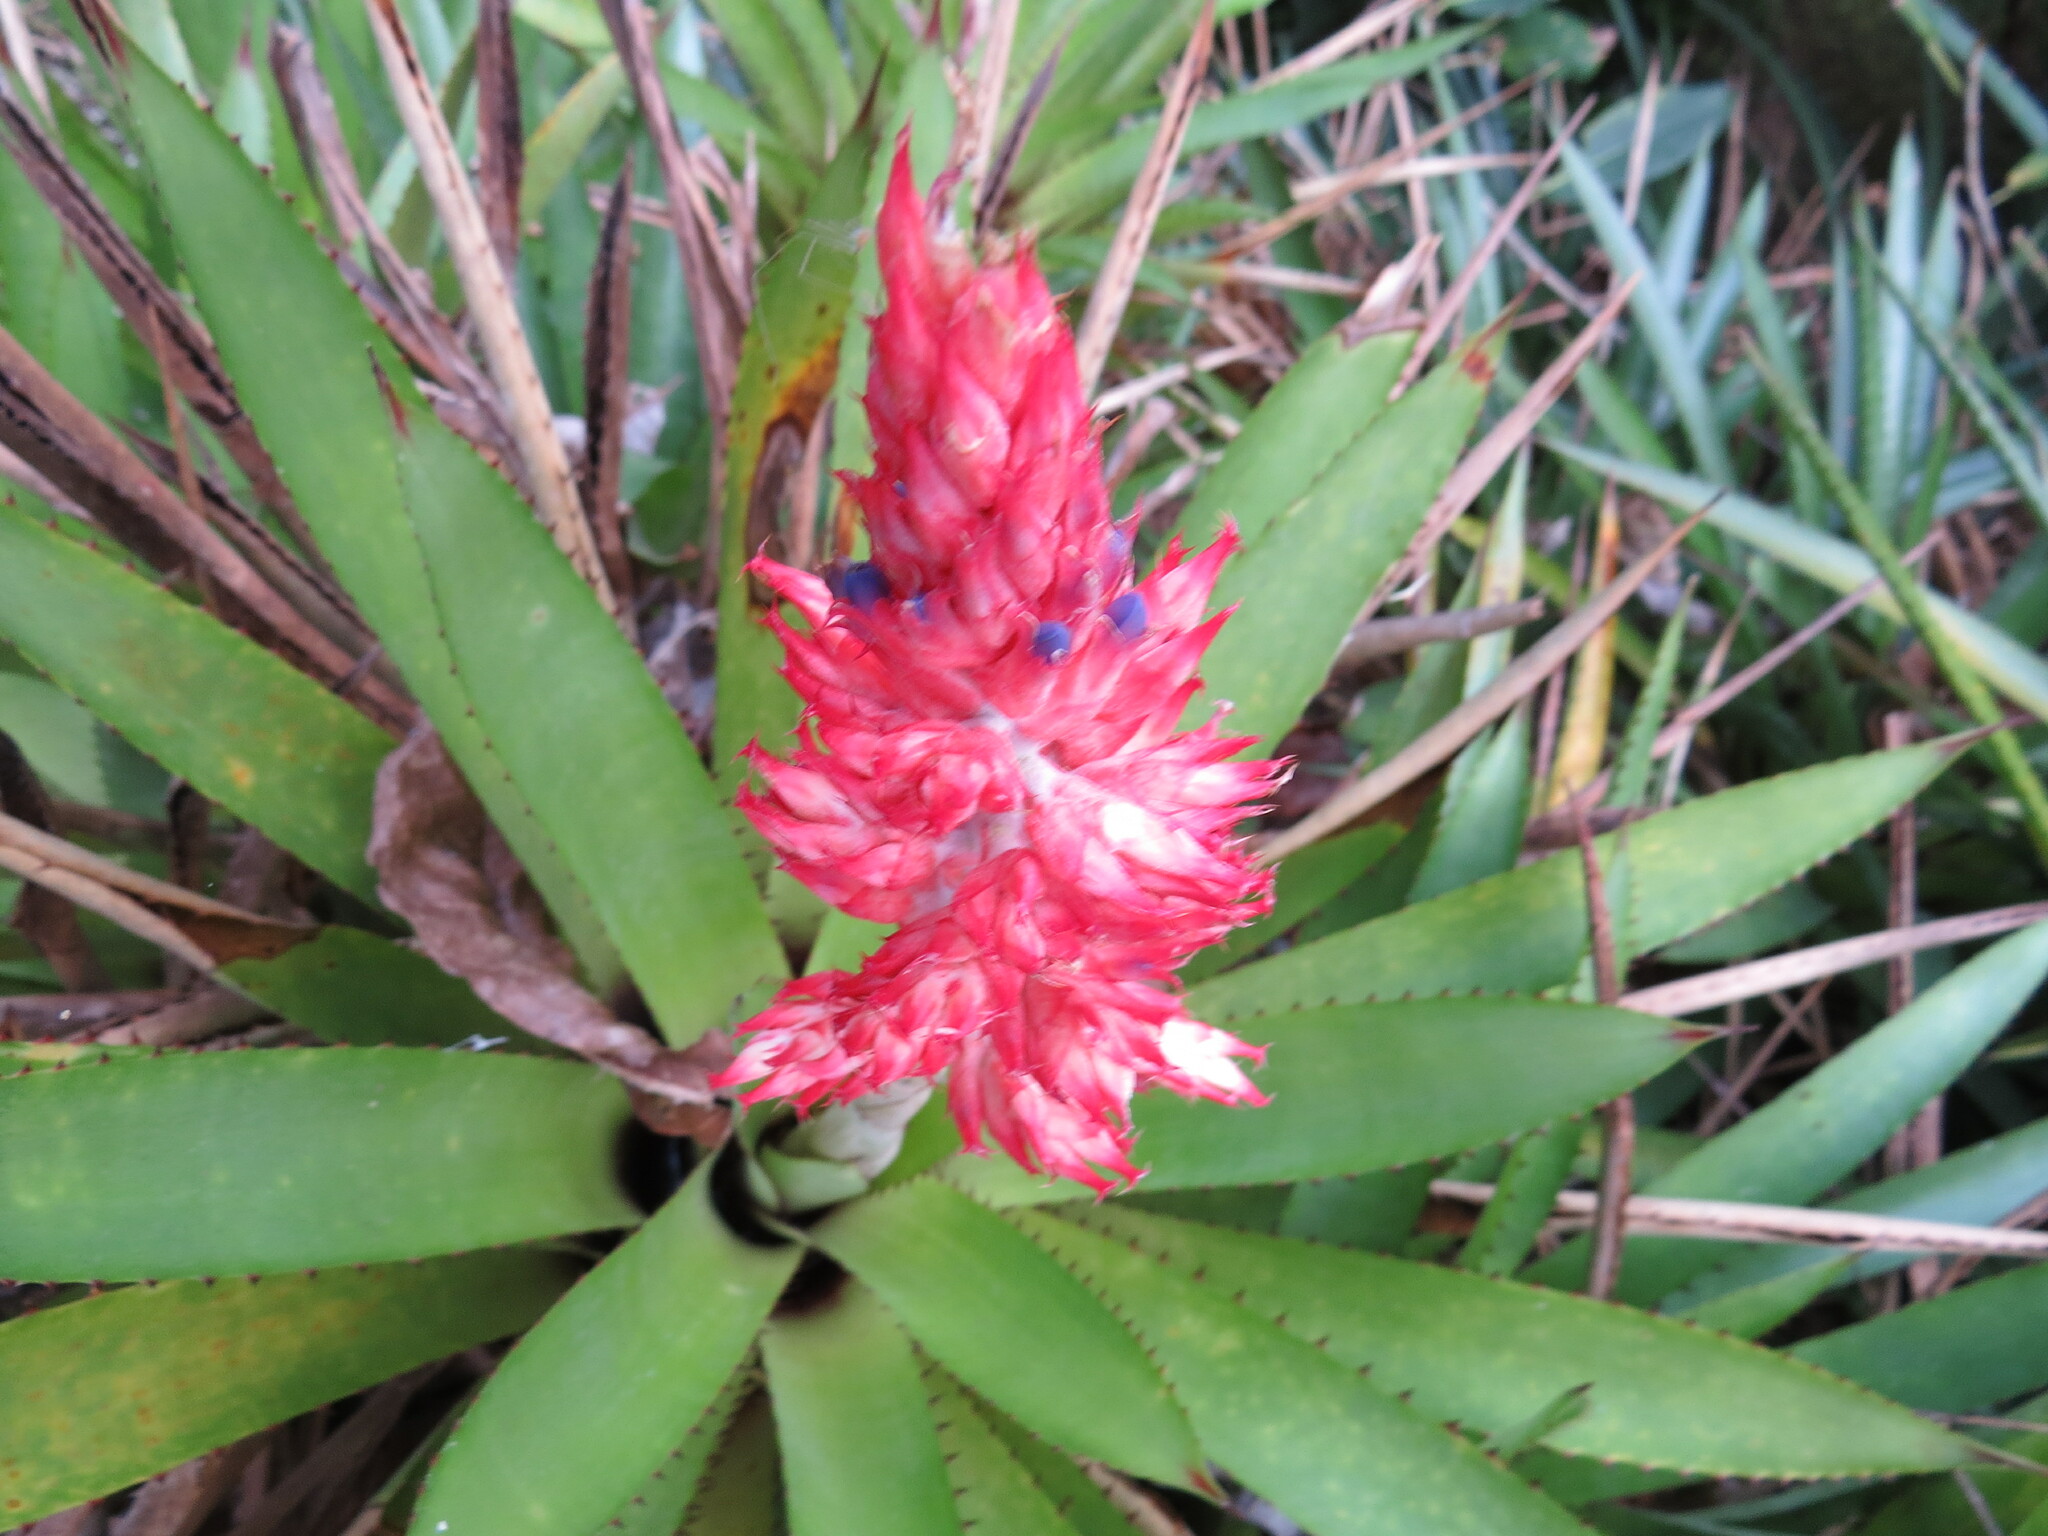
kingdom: Plantae
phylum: Tracheophyta
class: Liliopsida
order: Poales
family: Bromeliaceae
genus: Aechmea
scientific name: Aechmea sumidourensis
